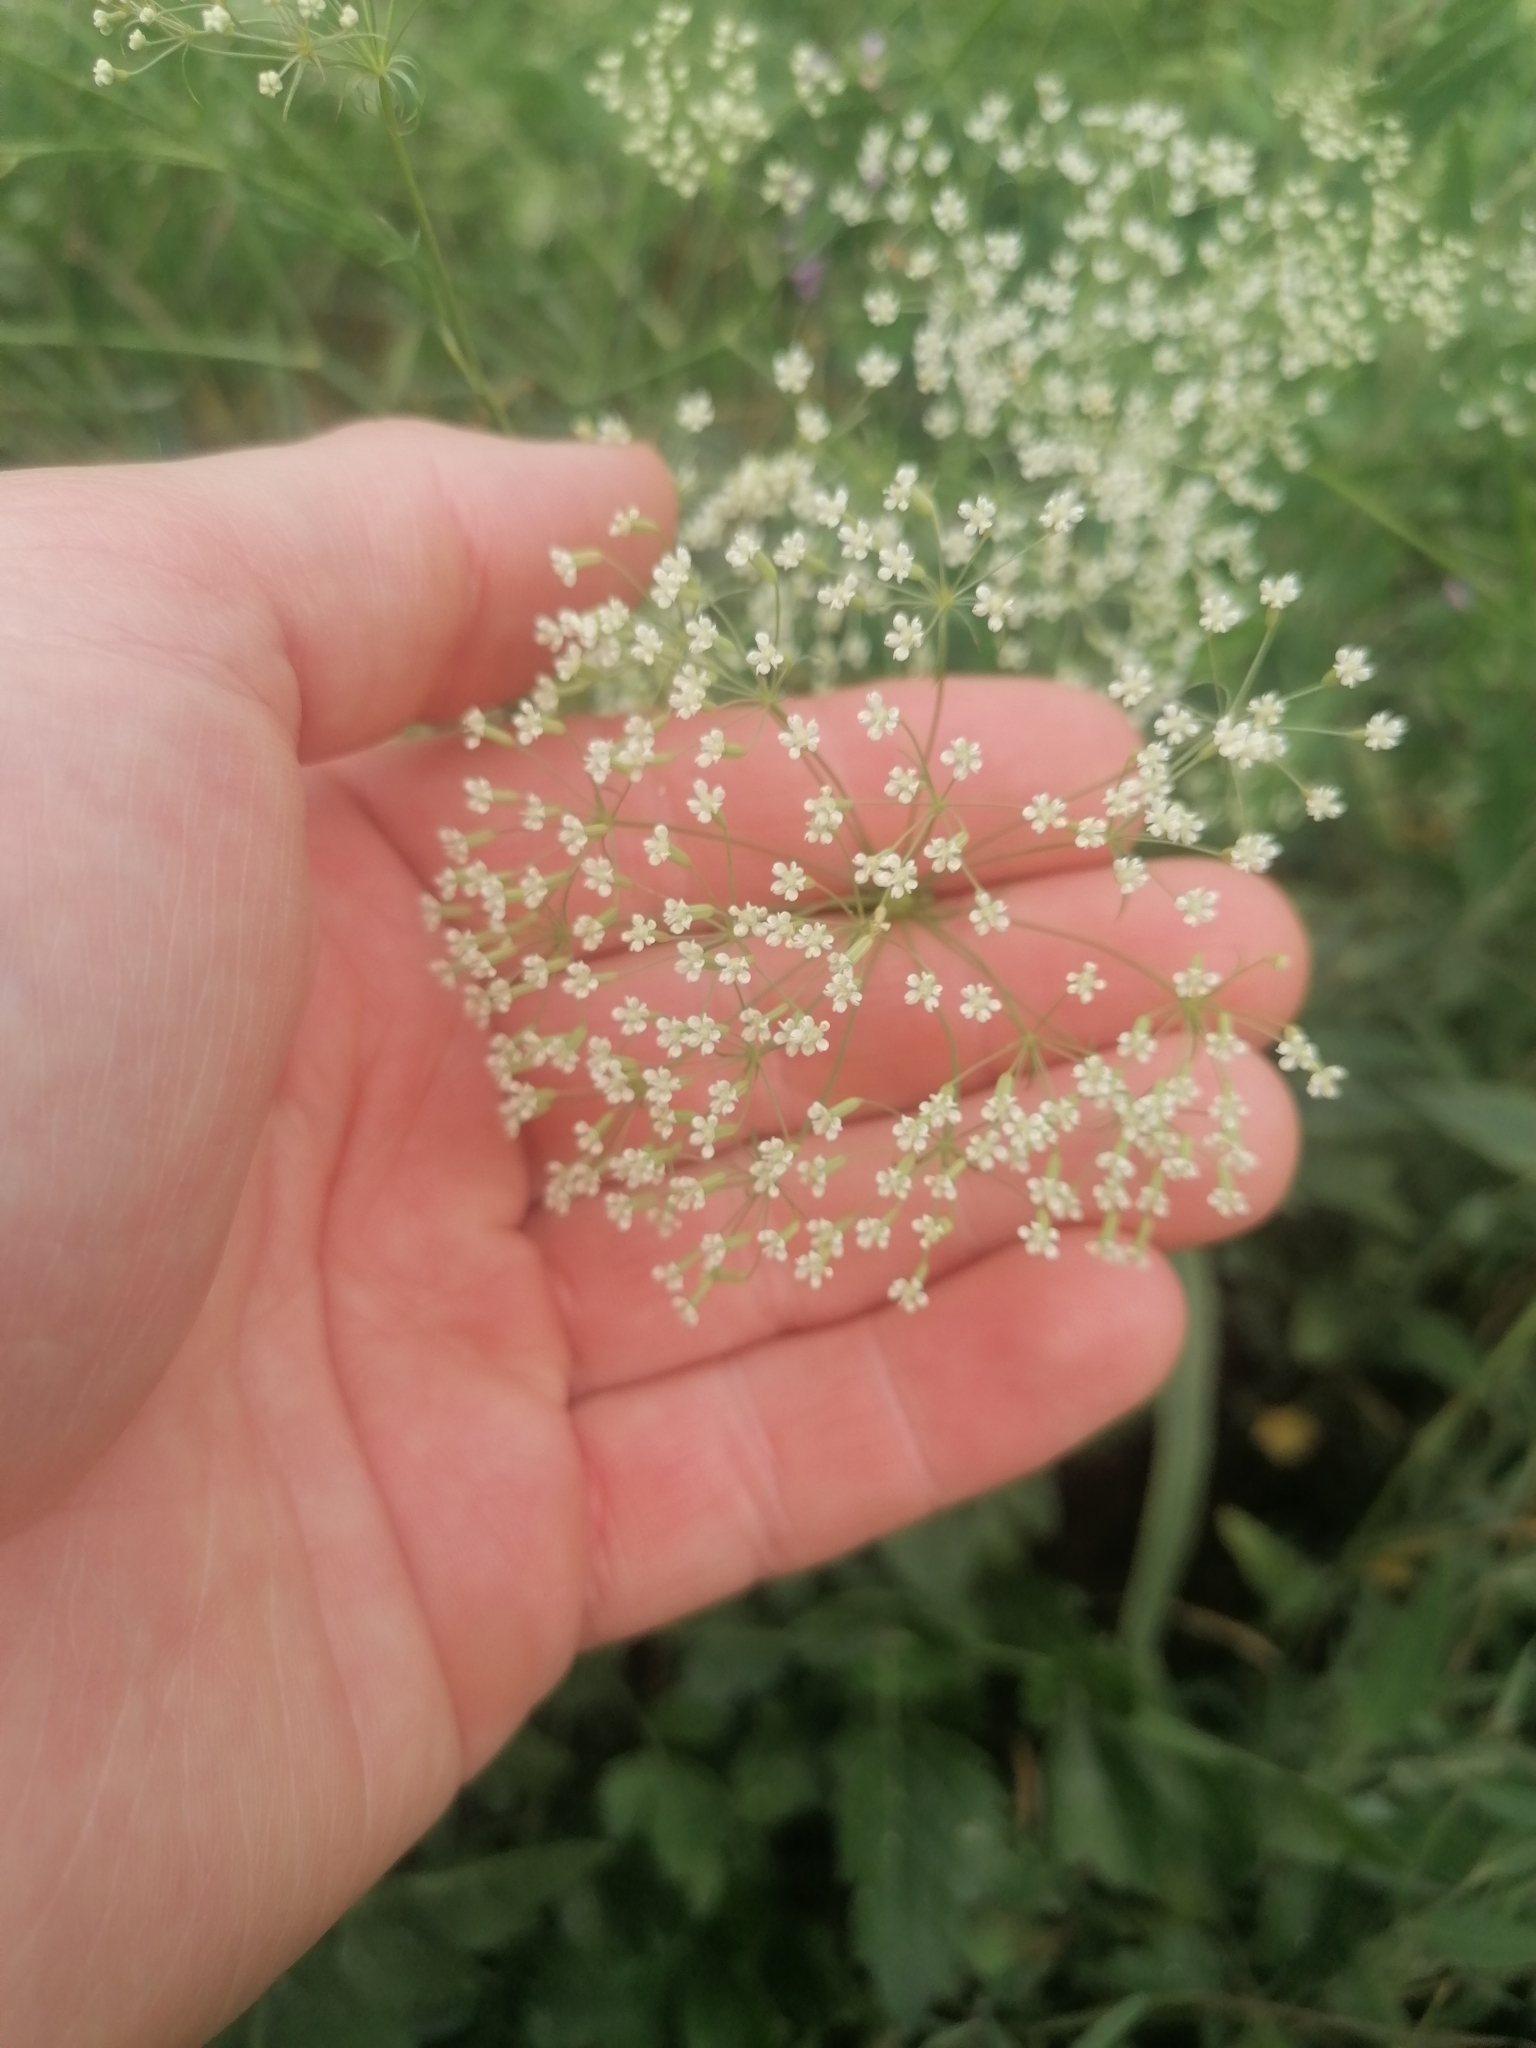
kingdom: Plantae
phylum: Tracheophyta
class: Magnoliopsida
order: Apiales
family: Apiaceae
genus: Falcaria
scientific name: Falcaria vulgaris
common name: Longleaf
